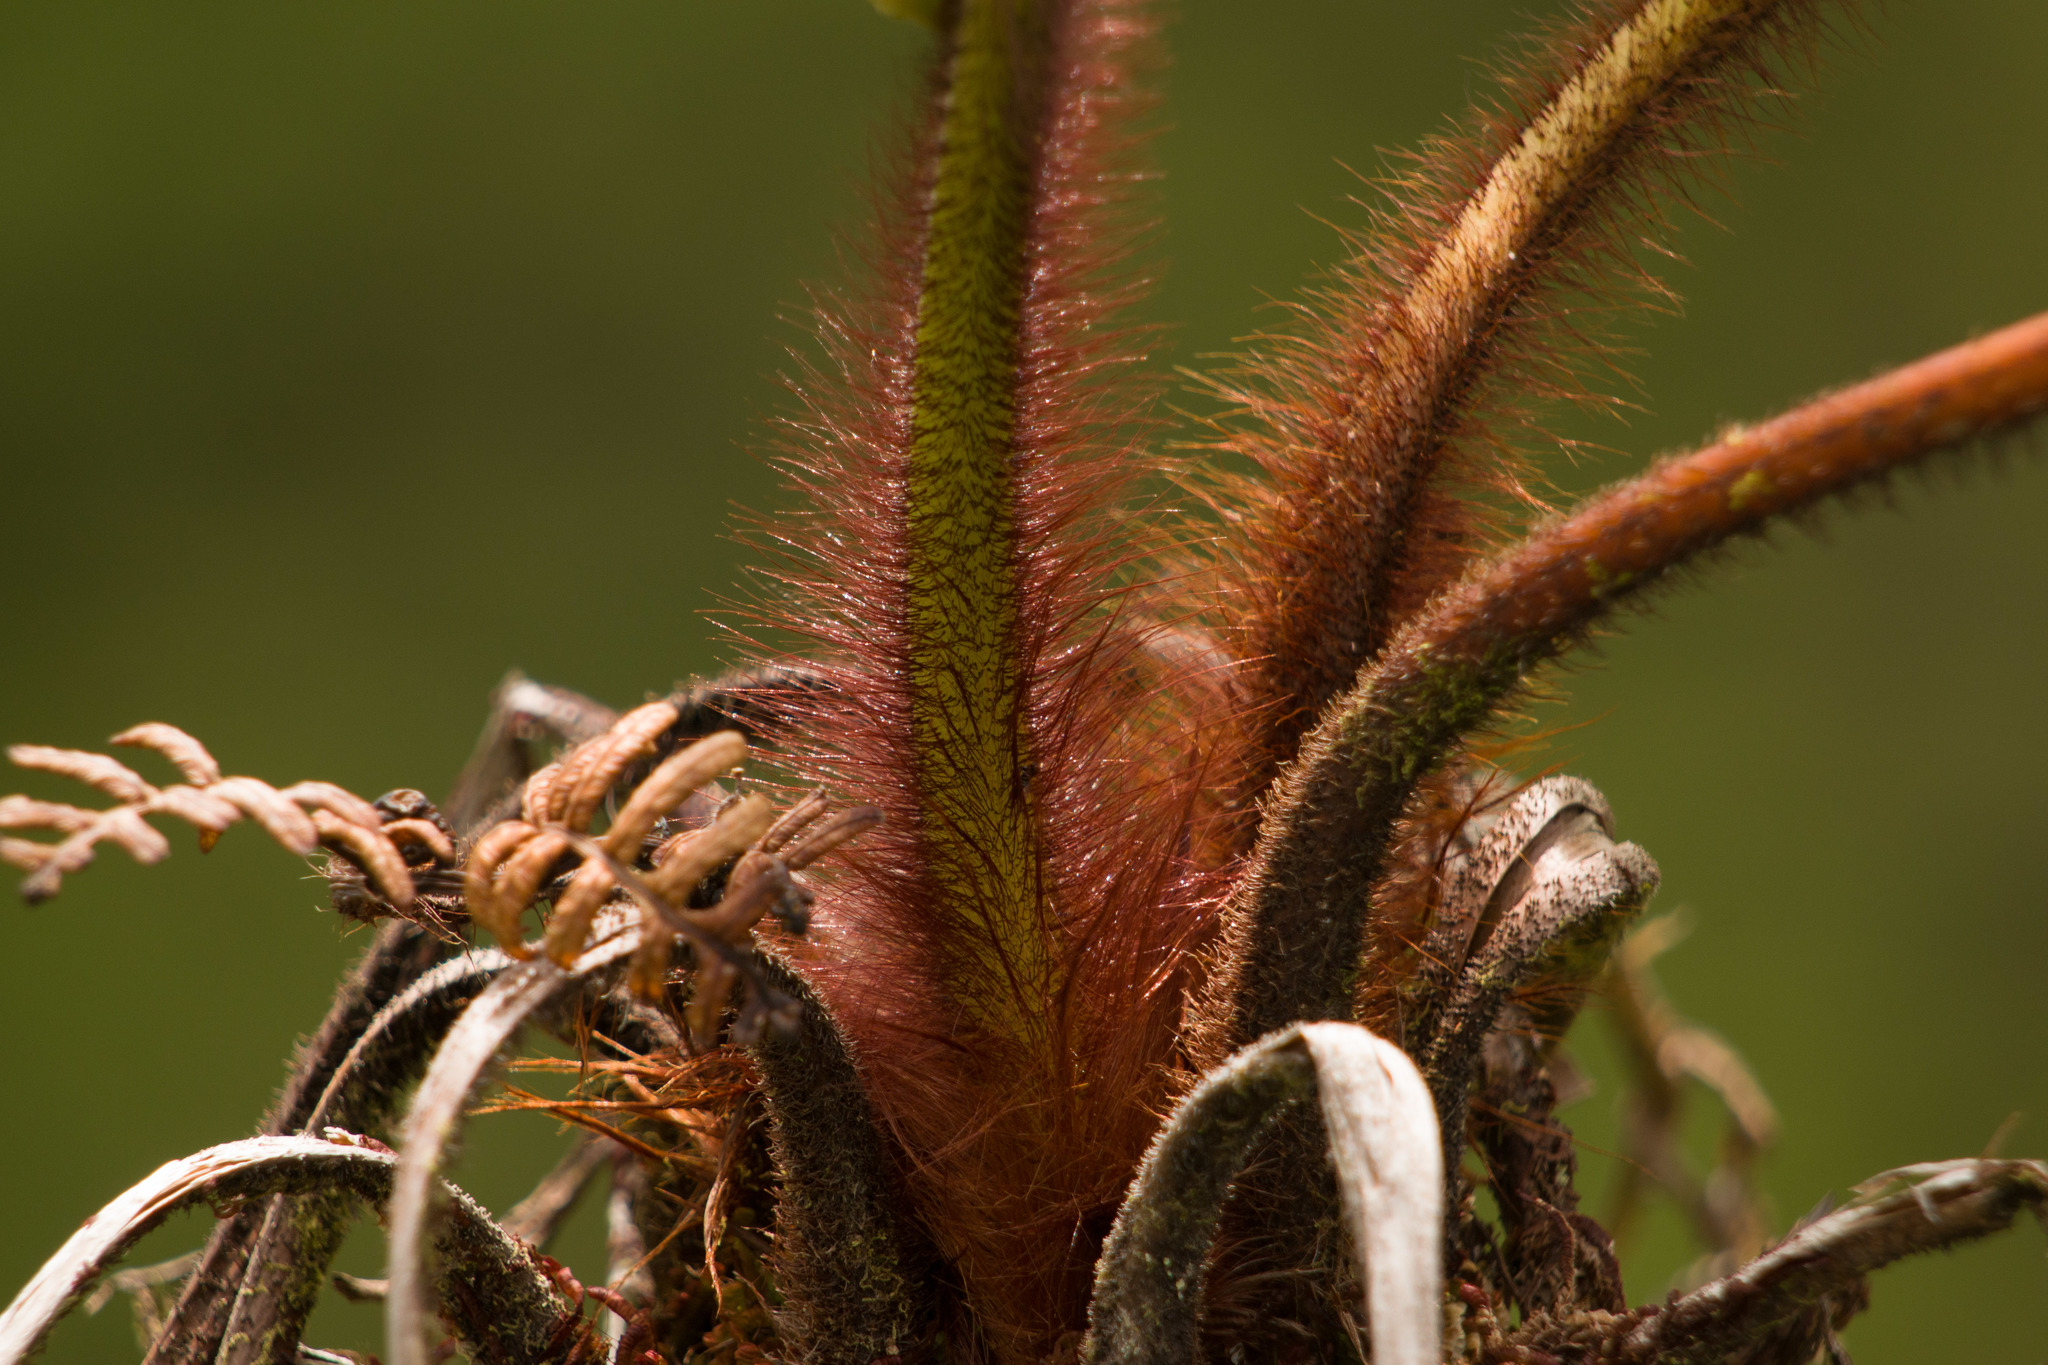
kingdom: Plantae
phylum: Tracheophyta
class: Polypodiopsida
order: Cyatheales
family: Cibotiaceae
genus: Cibotium
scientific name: Cibotium menziesii
